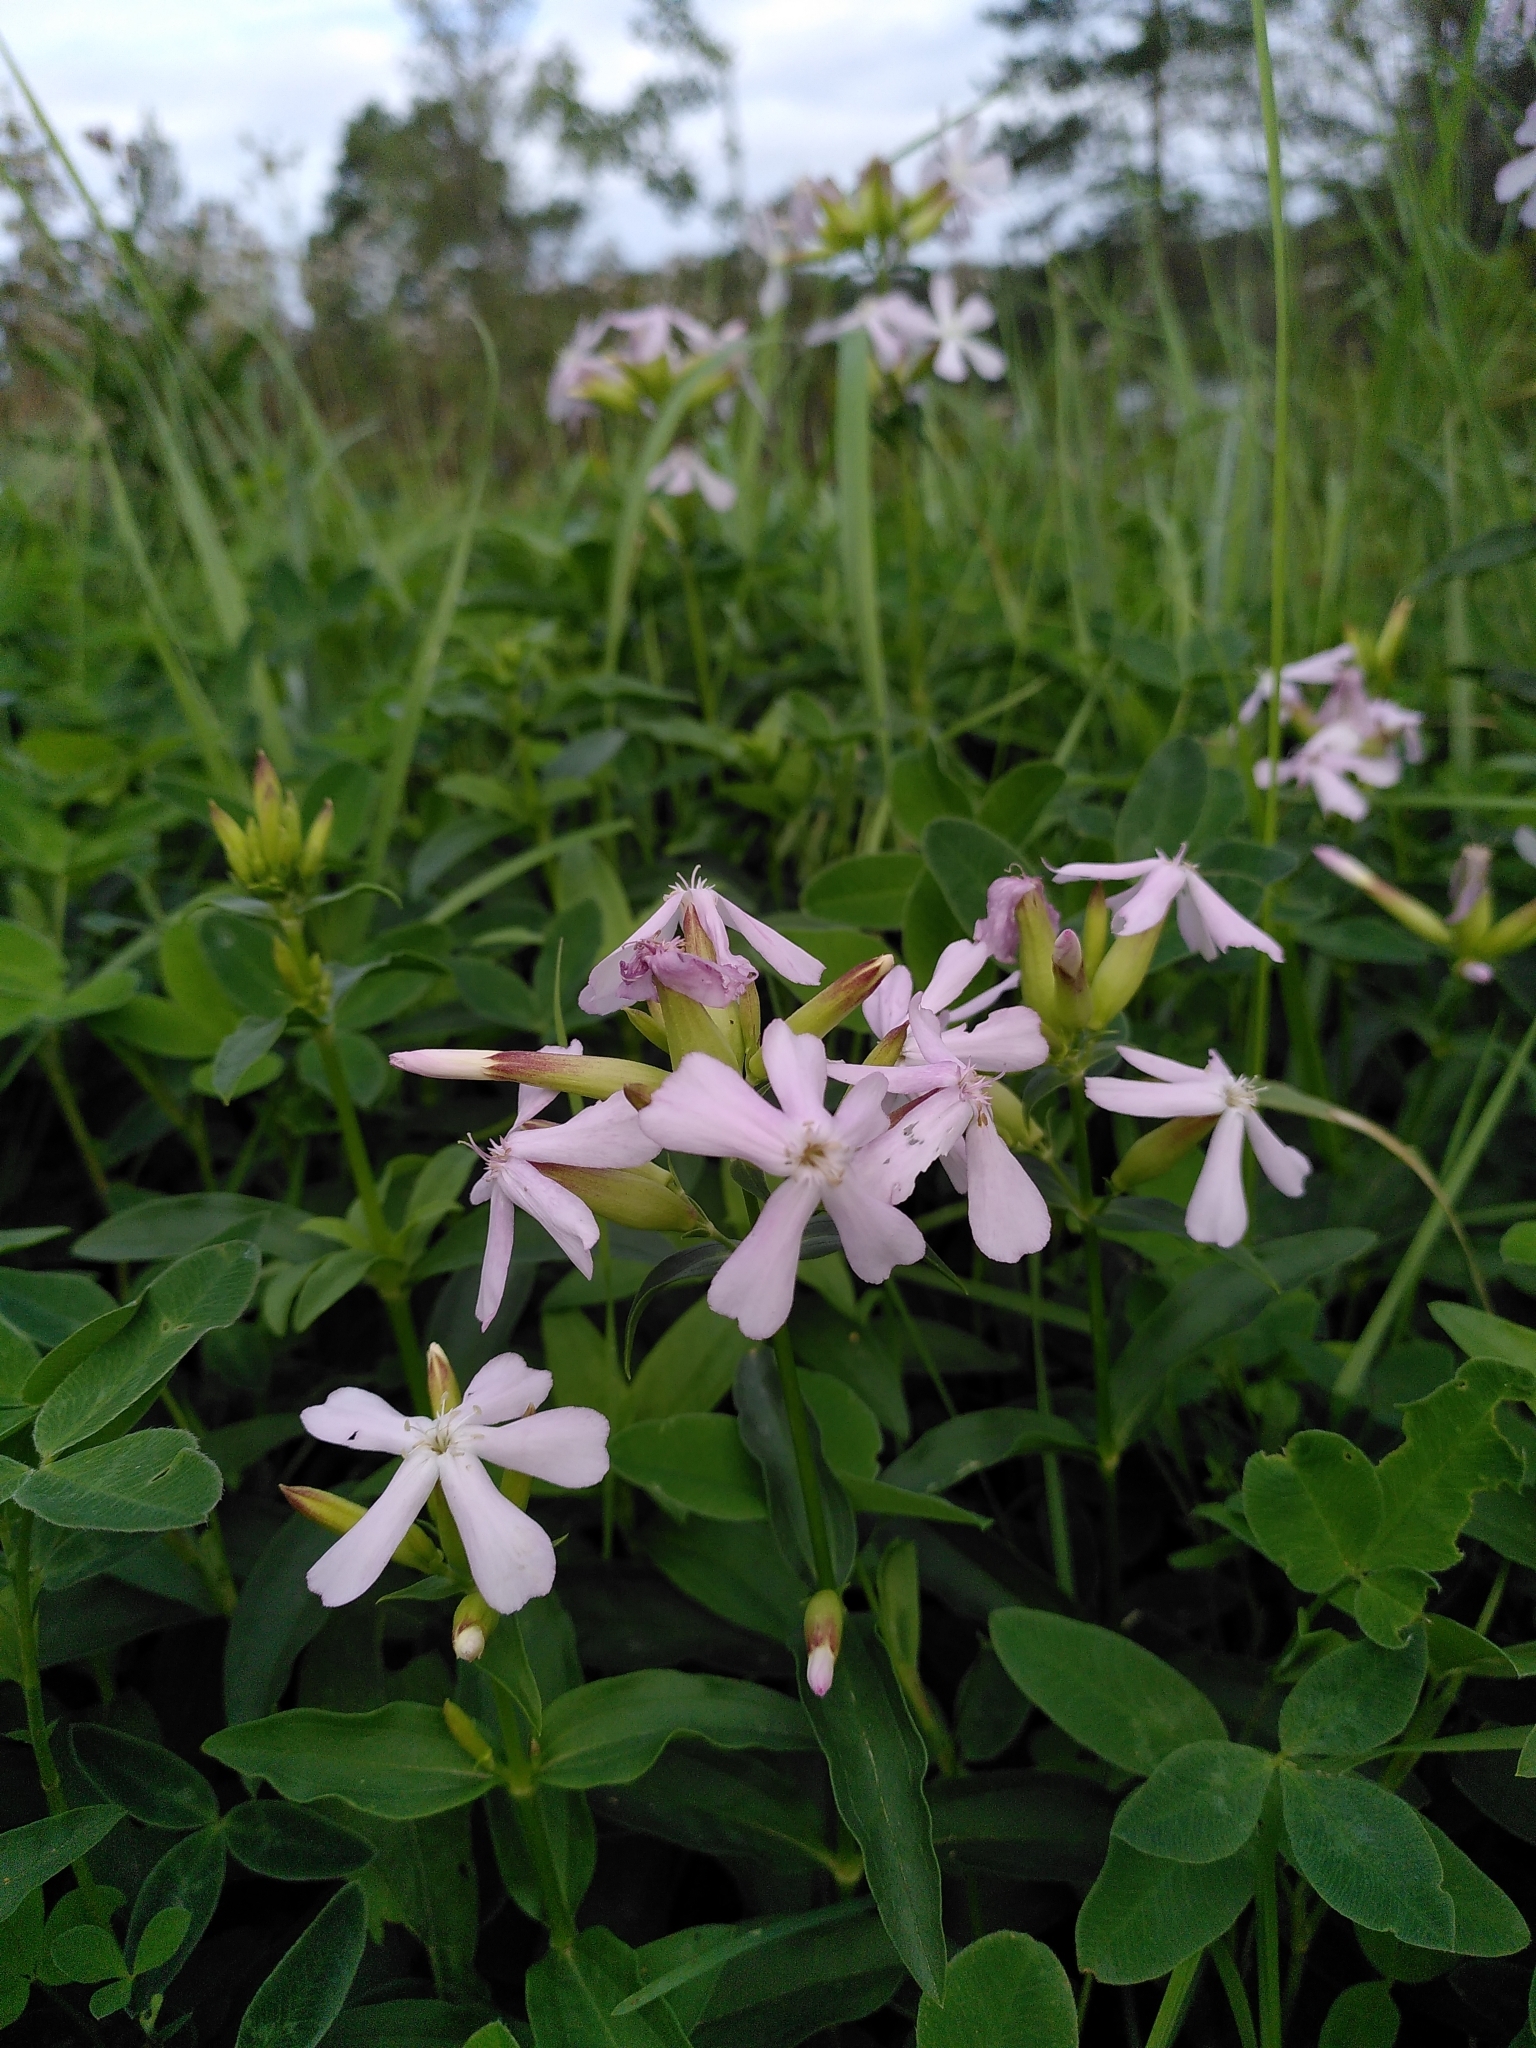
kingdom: Plantae
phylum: Tracheophyta
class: Magnoliopsida
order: Caryophyllales
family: Caryophyllaceae
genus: Saponaria
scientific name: Saponaria officinalis
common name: Soapwort
